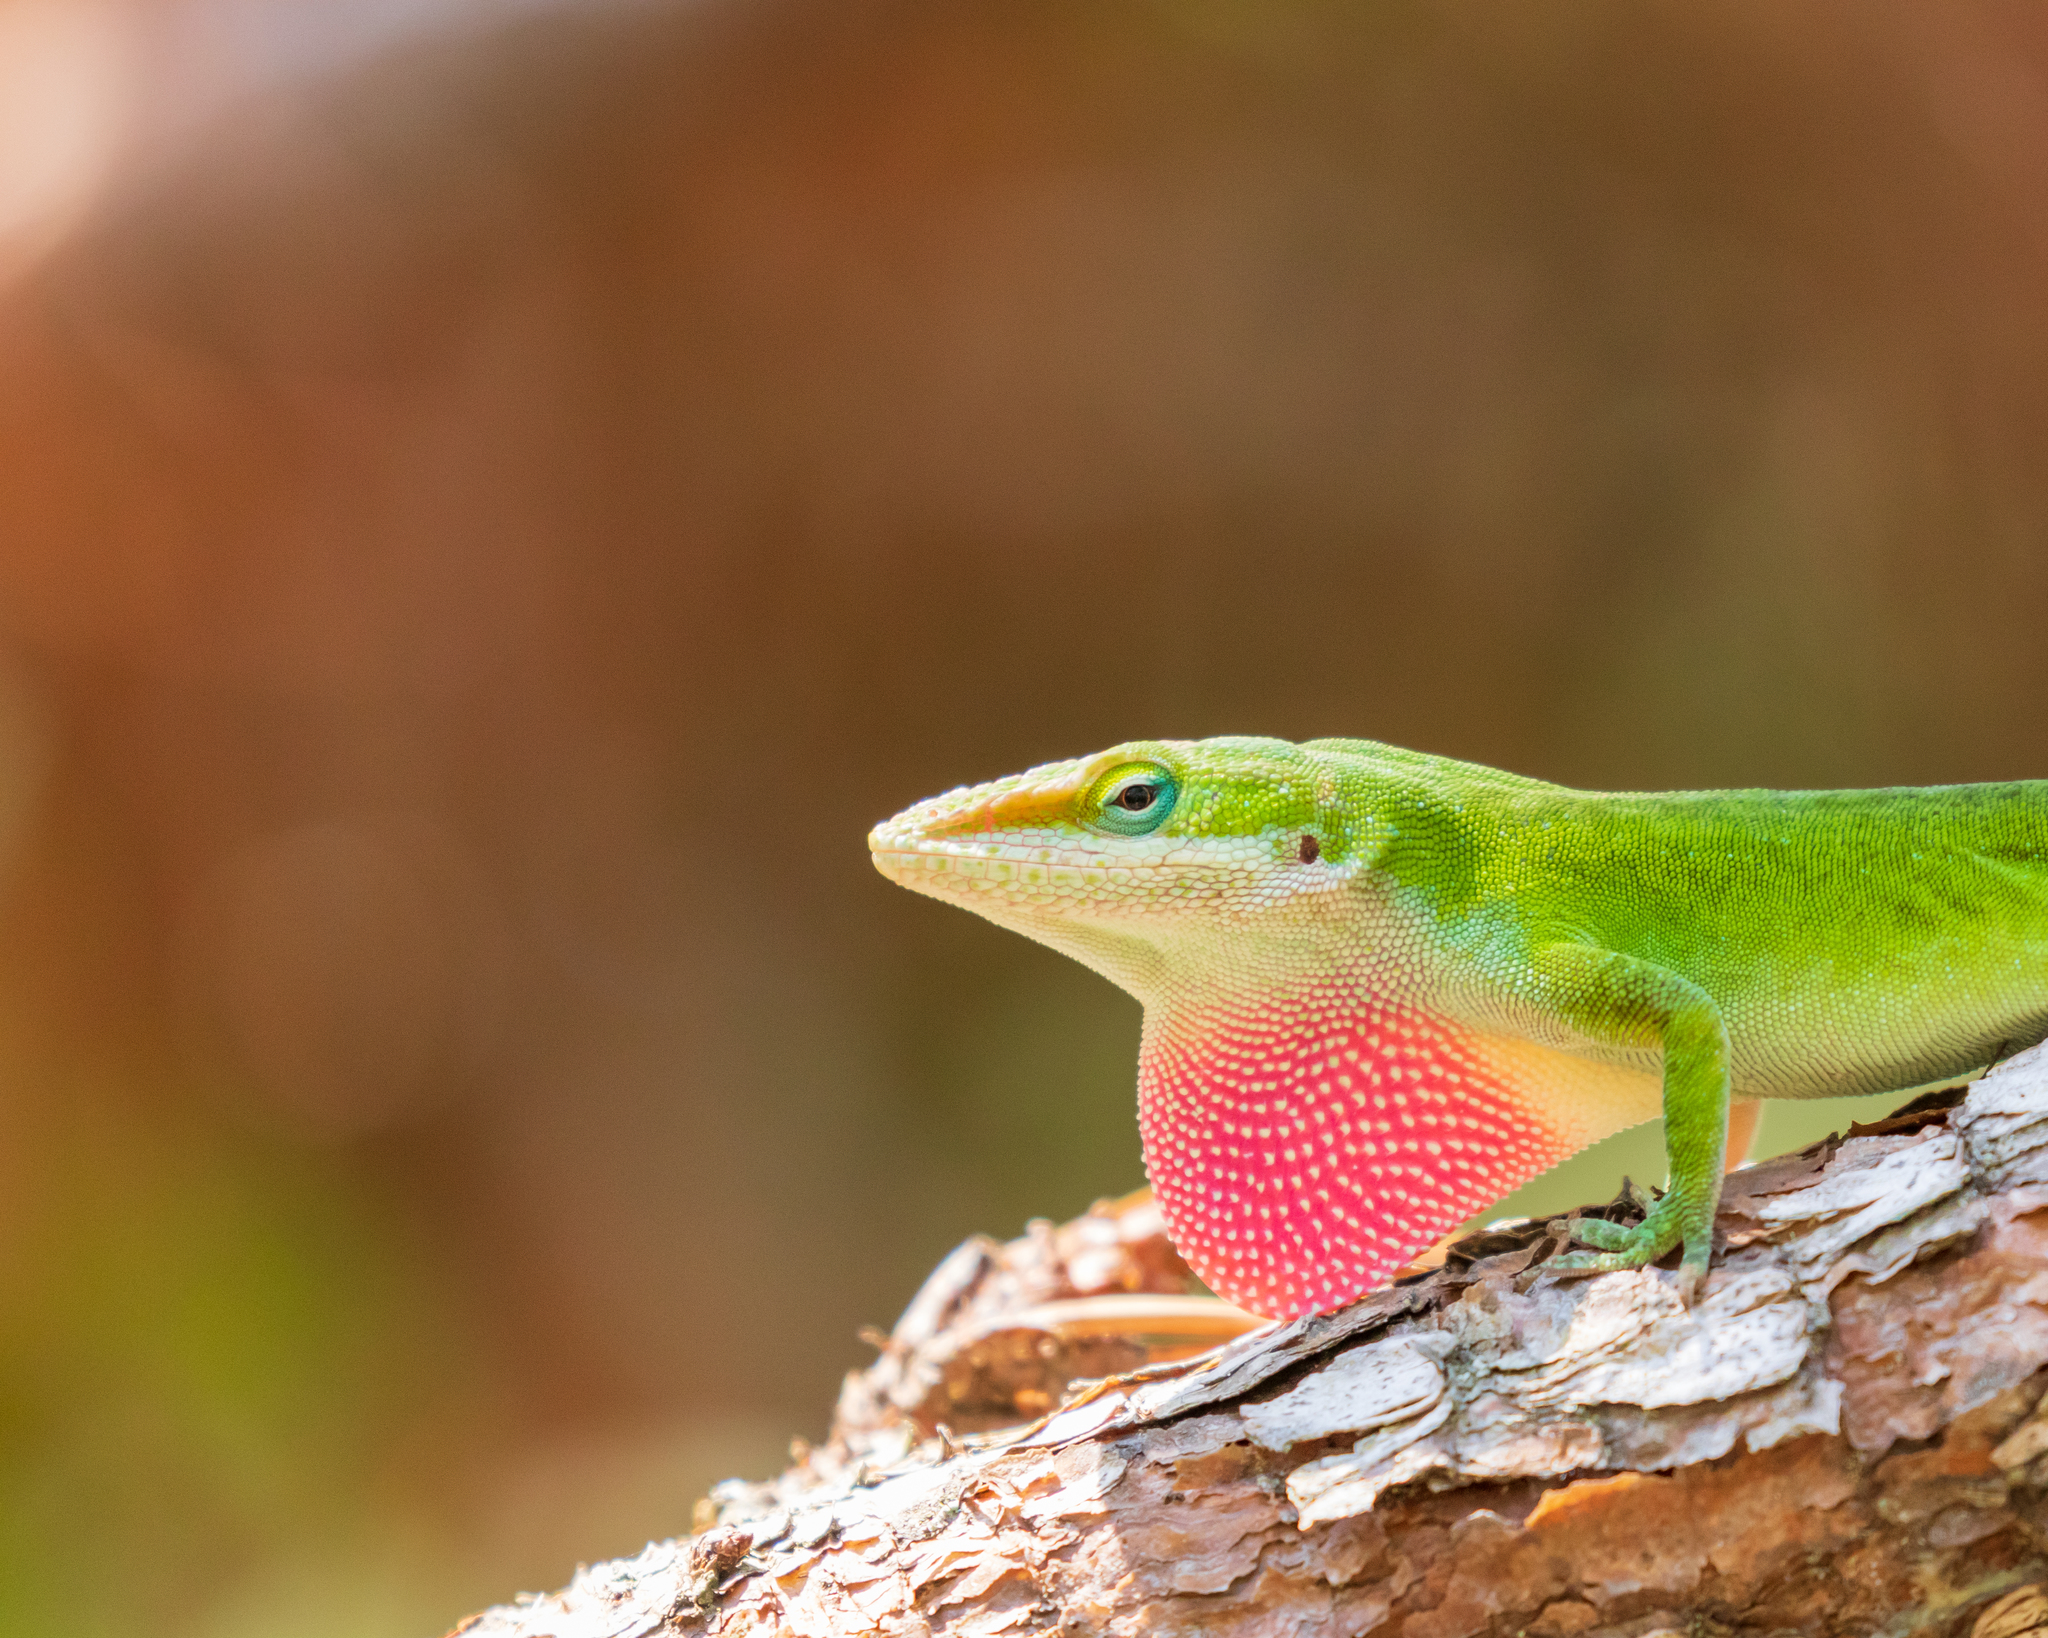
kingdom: Animalia
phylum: Chordata
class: Squamata
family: Dactyloidae
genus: Anolis
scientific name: Anolis carolinensis
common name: Green anole
